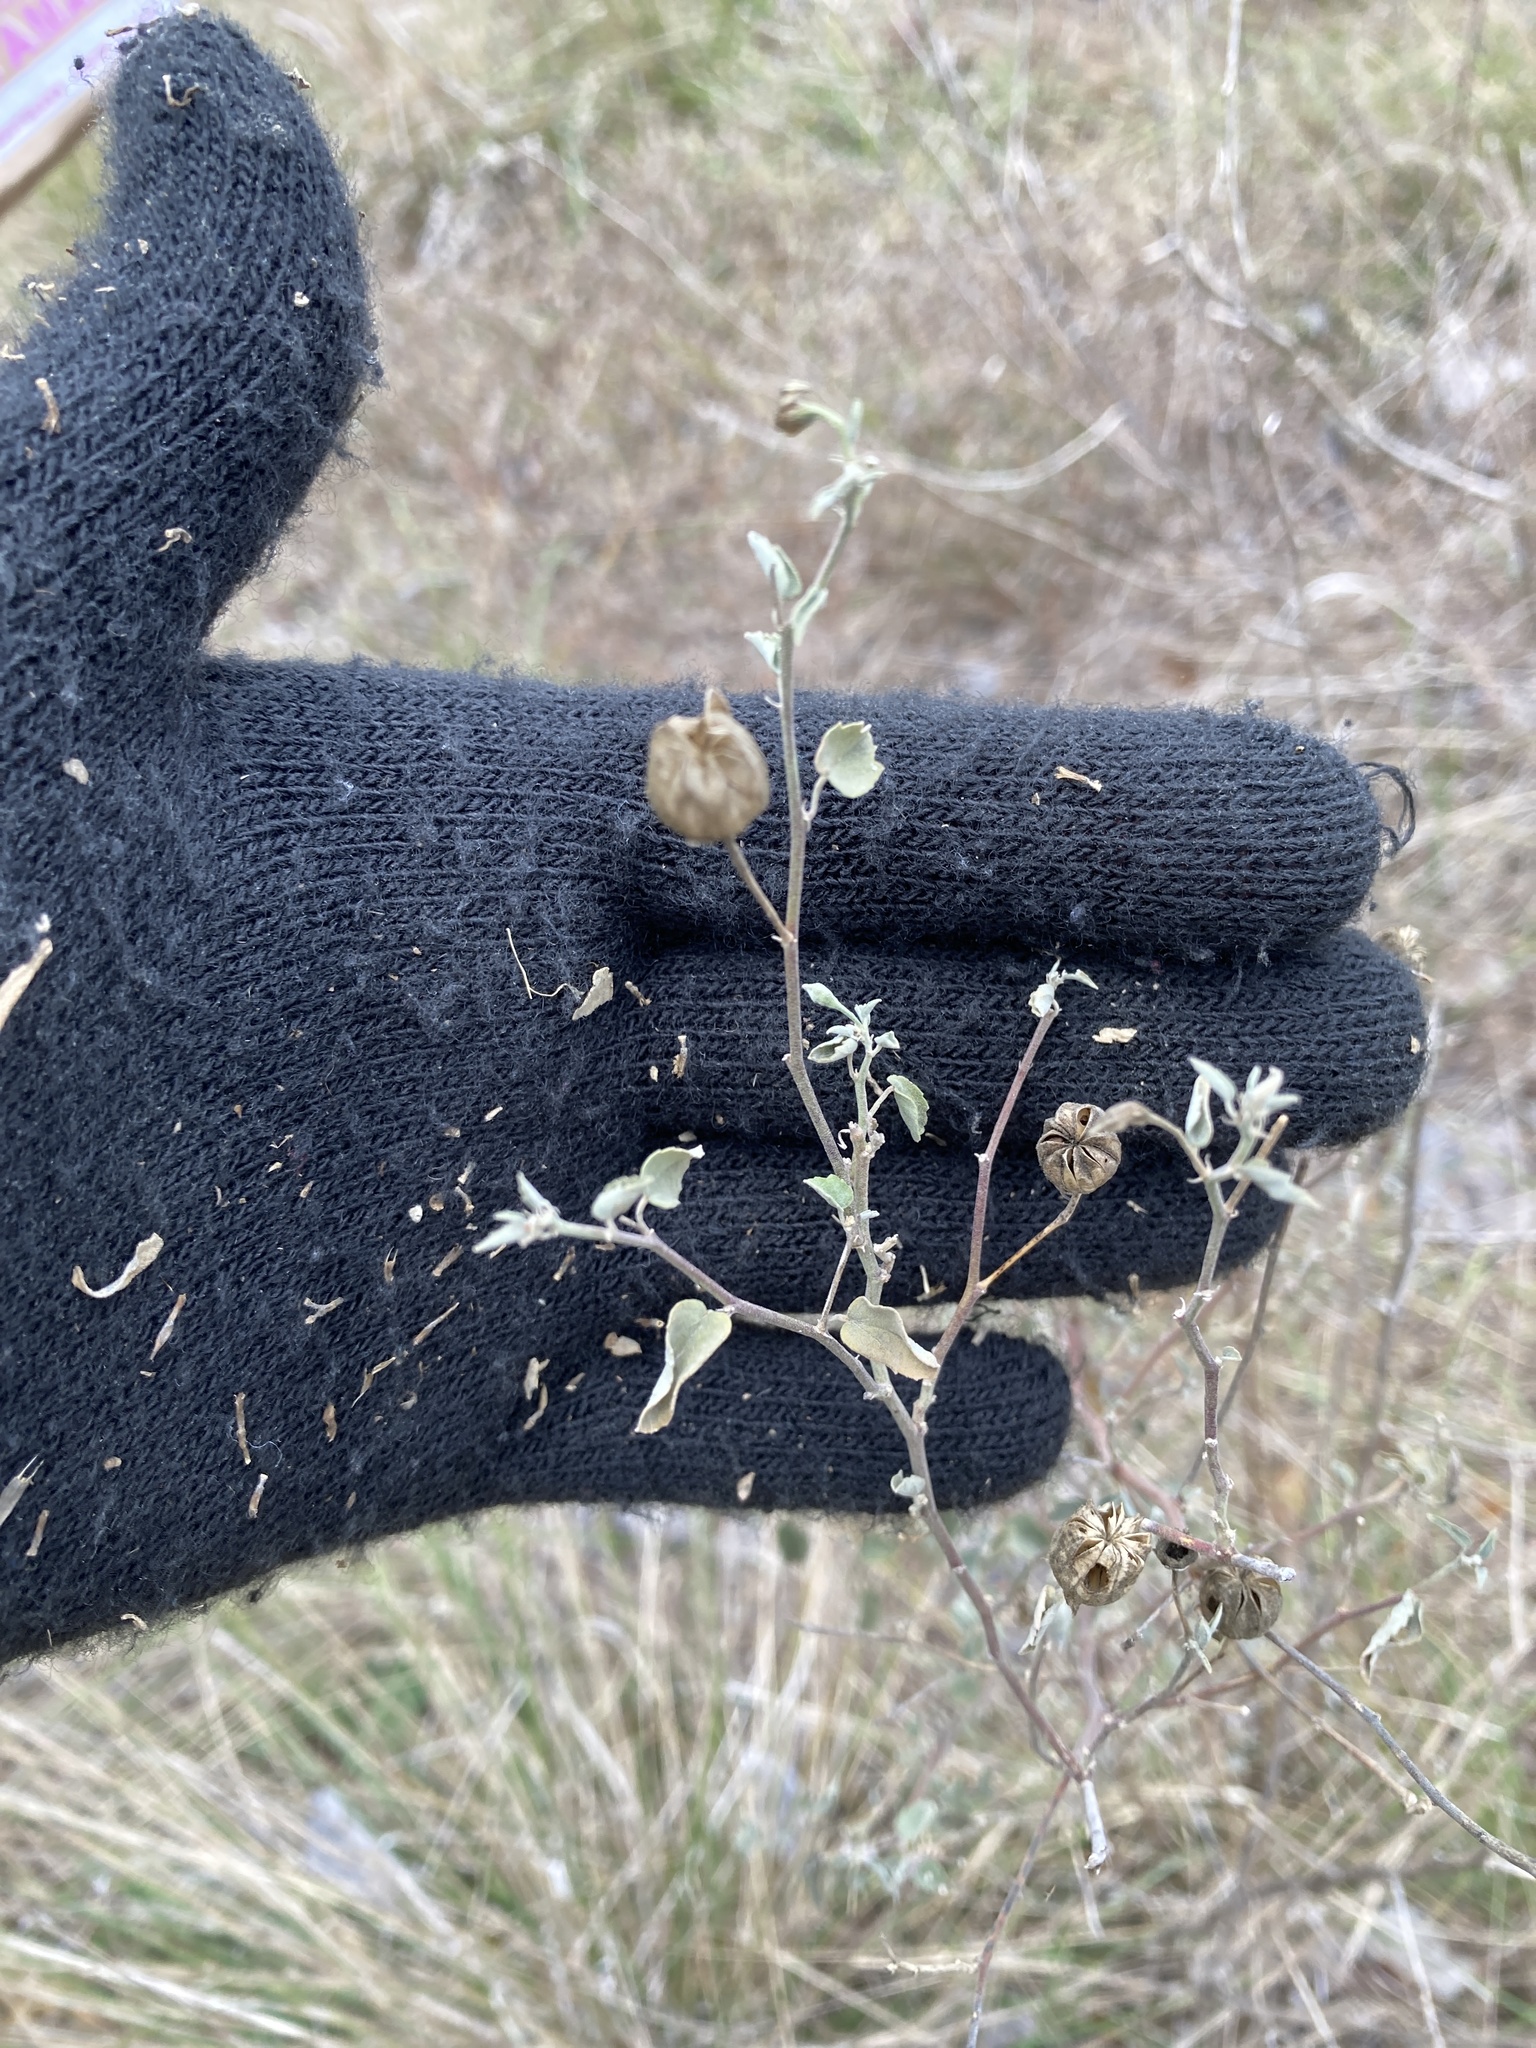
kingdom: Plantae
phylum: Tracheophyta
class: Magnoliopsida
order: Malvales
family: Malvaceae
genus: Abutilon
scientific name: Abutilon fruticosum
